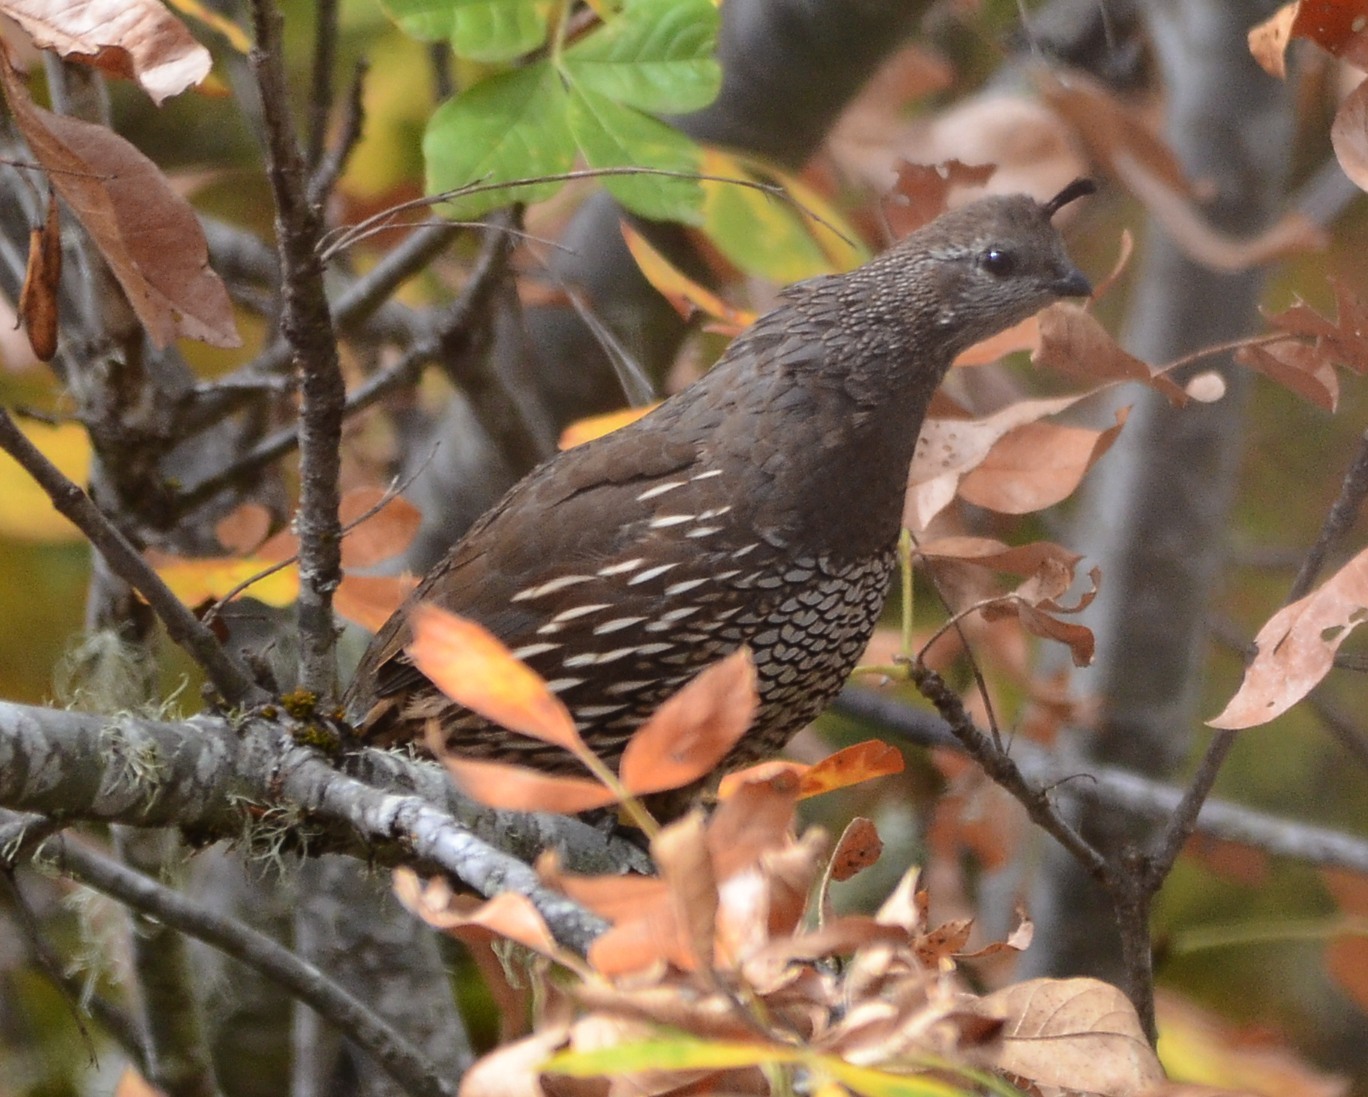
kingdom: Animalia
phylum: Chordata
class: Aves
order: Galliformes
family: Odontophoridae
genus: Callipepla
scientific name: Callipepla californica
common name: California quail
